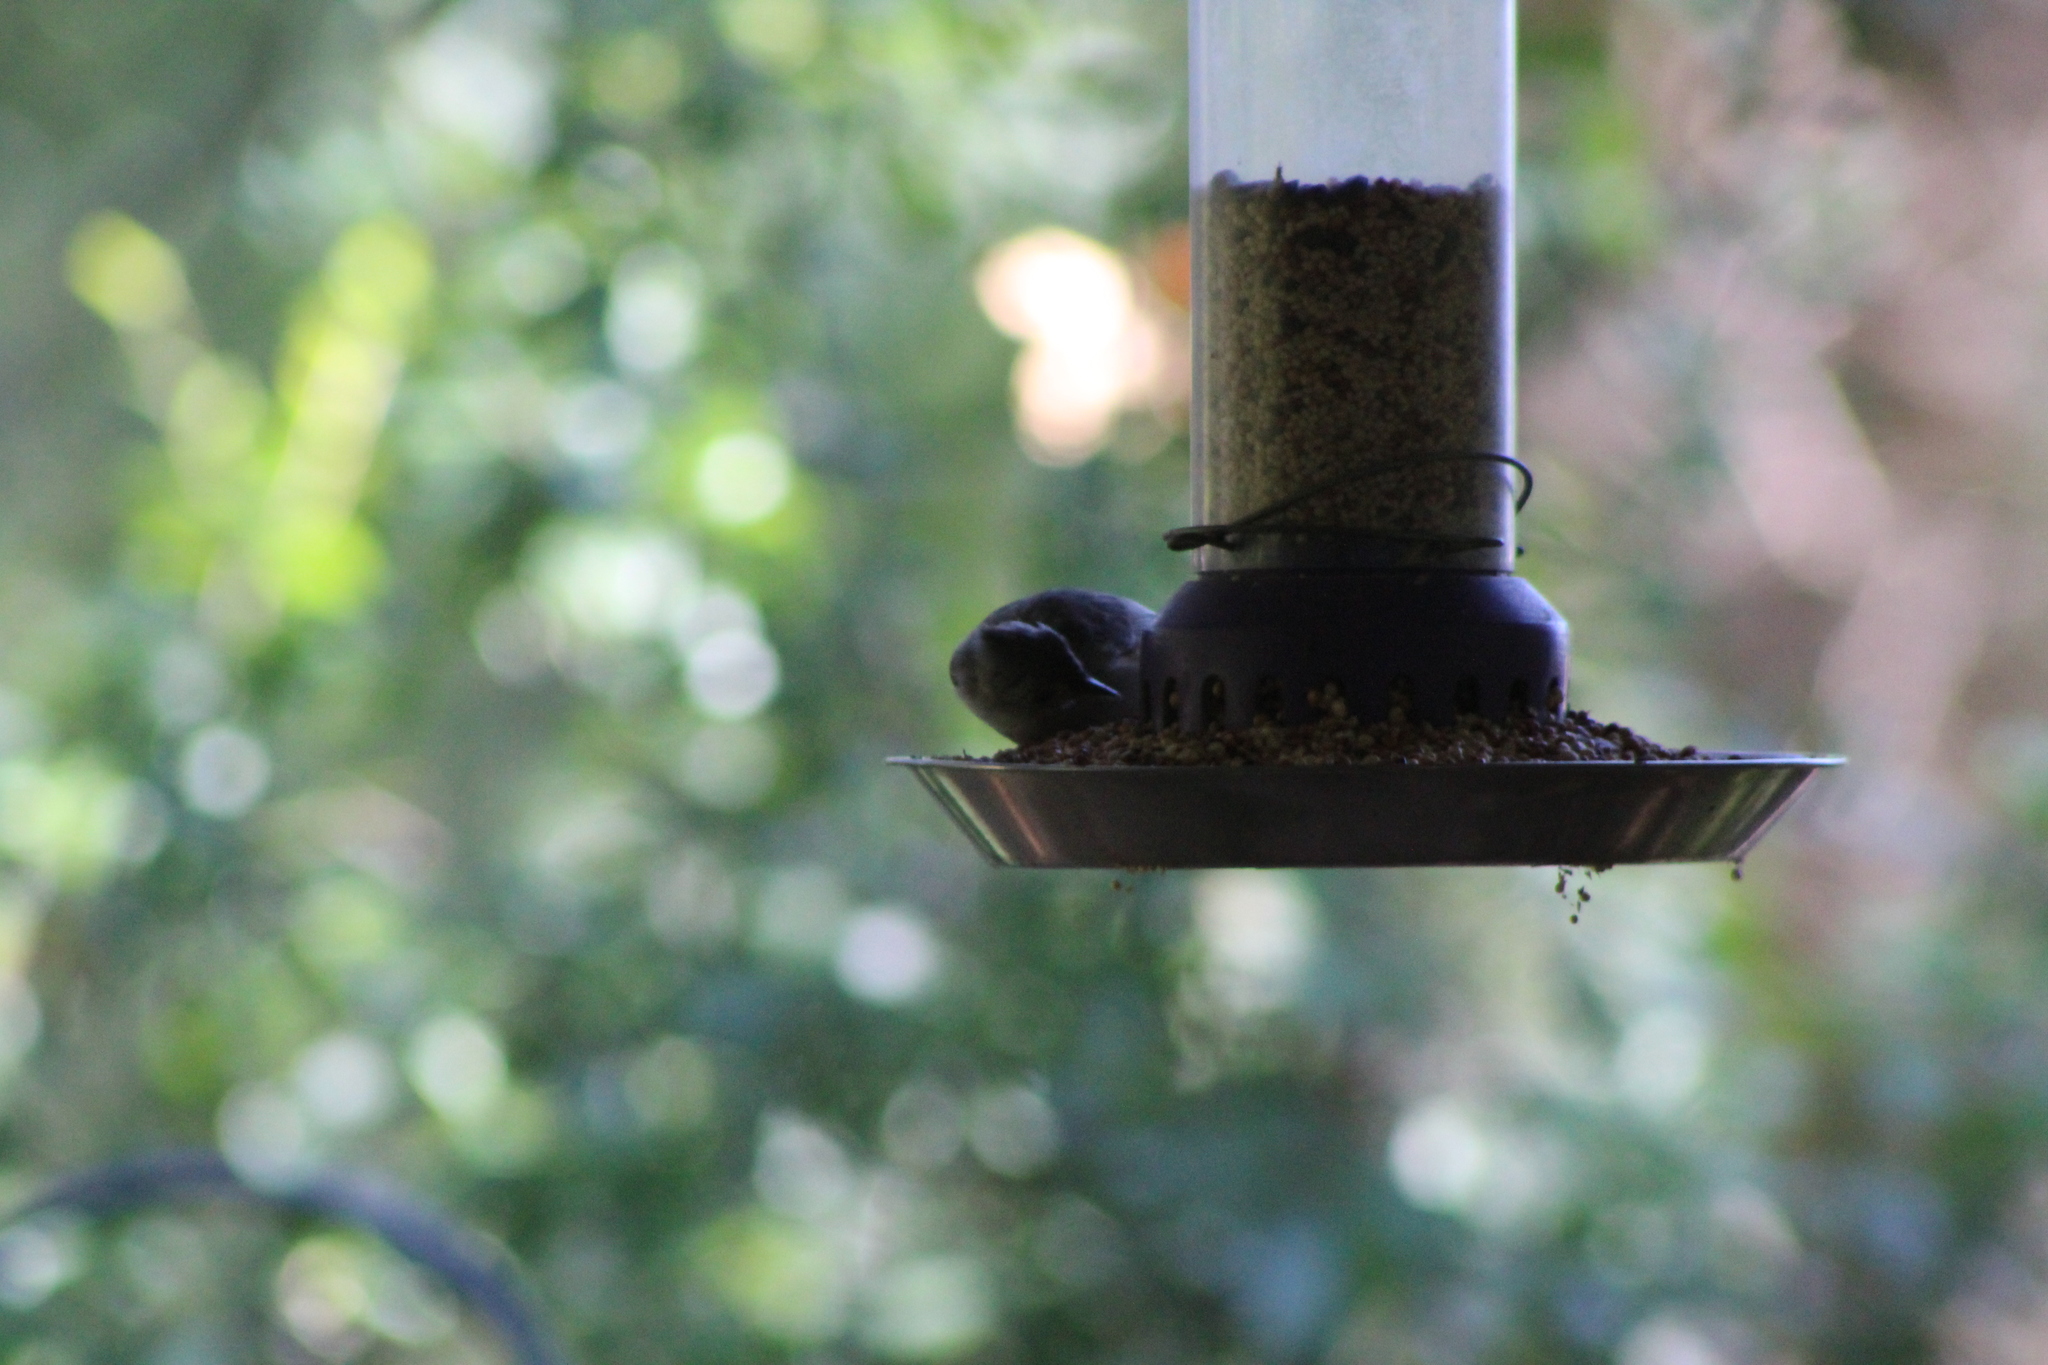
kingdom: Animalia
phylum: Chordata
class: Aves
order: Passeriformes
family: Paridae
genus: Baeolophus
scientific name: Baeolophus bicolor
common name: Tufted titmouse
